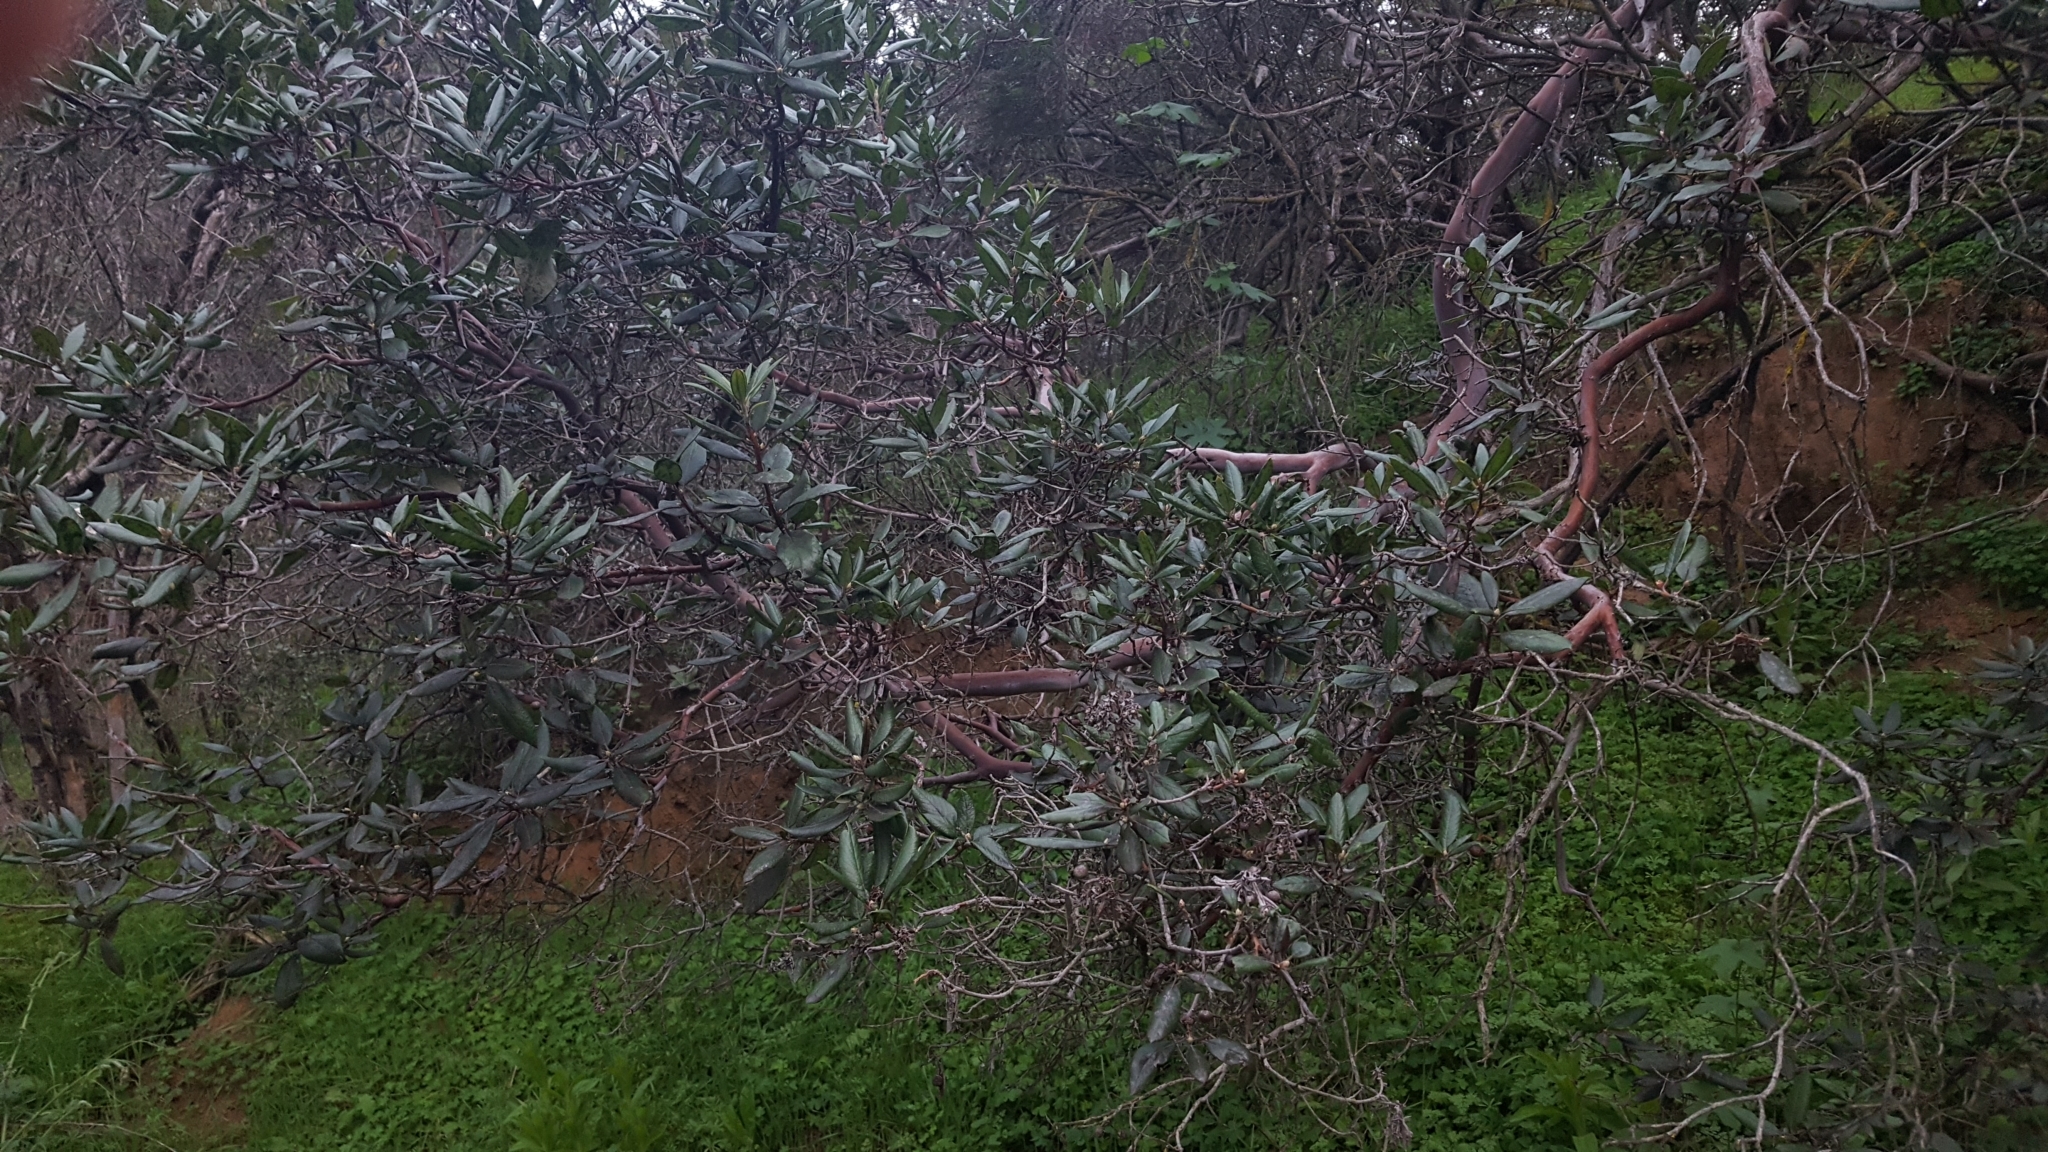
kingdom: Plantae
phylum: Tracheophyta
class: Magnoliopsida
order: Ericales
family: Ericaceae
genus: Arctostaphylos
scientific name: Arctostaphylos bicolor
